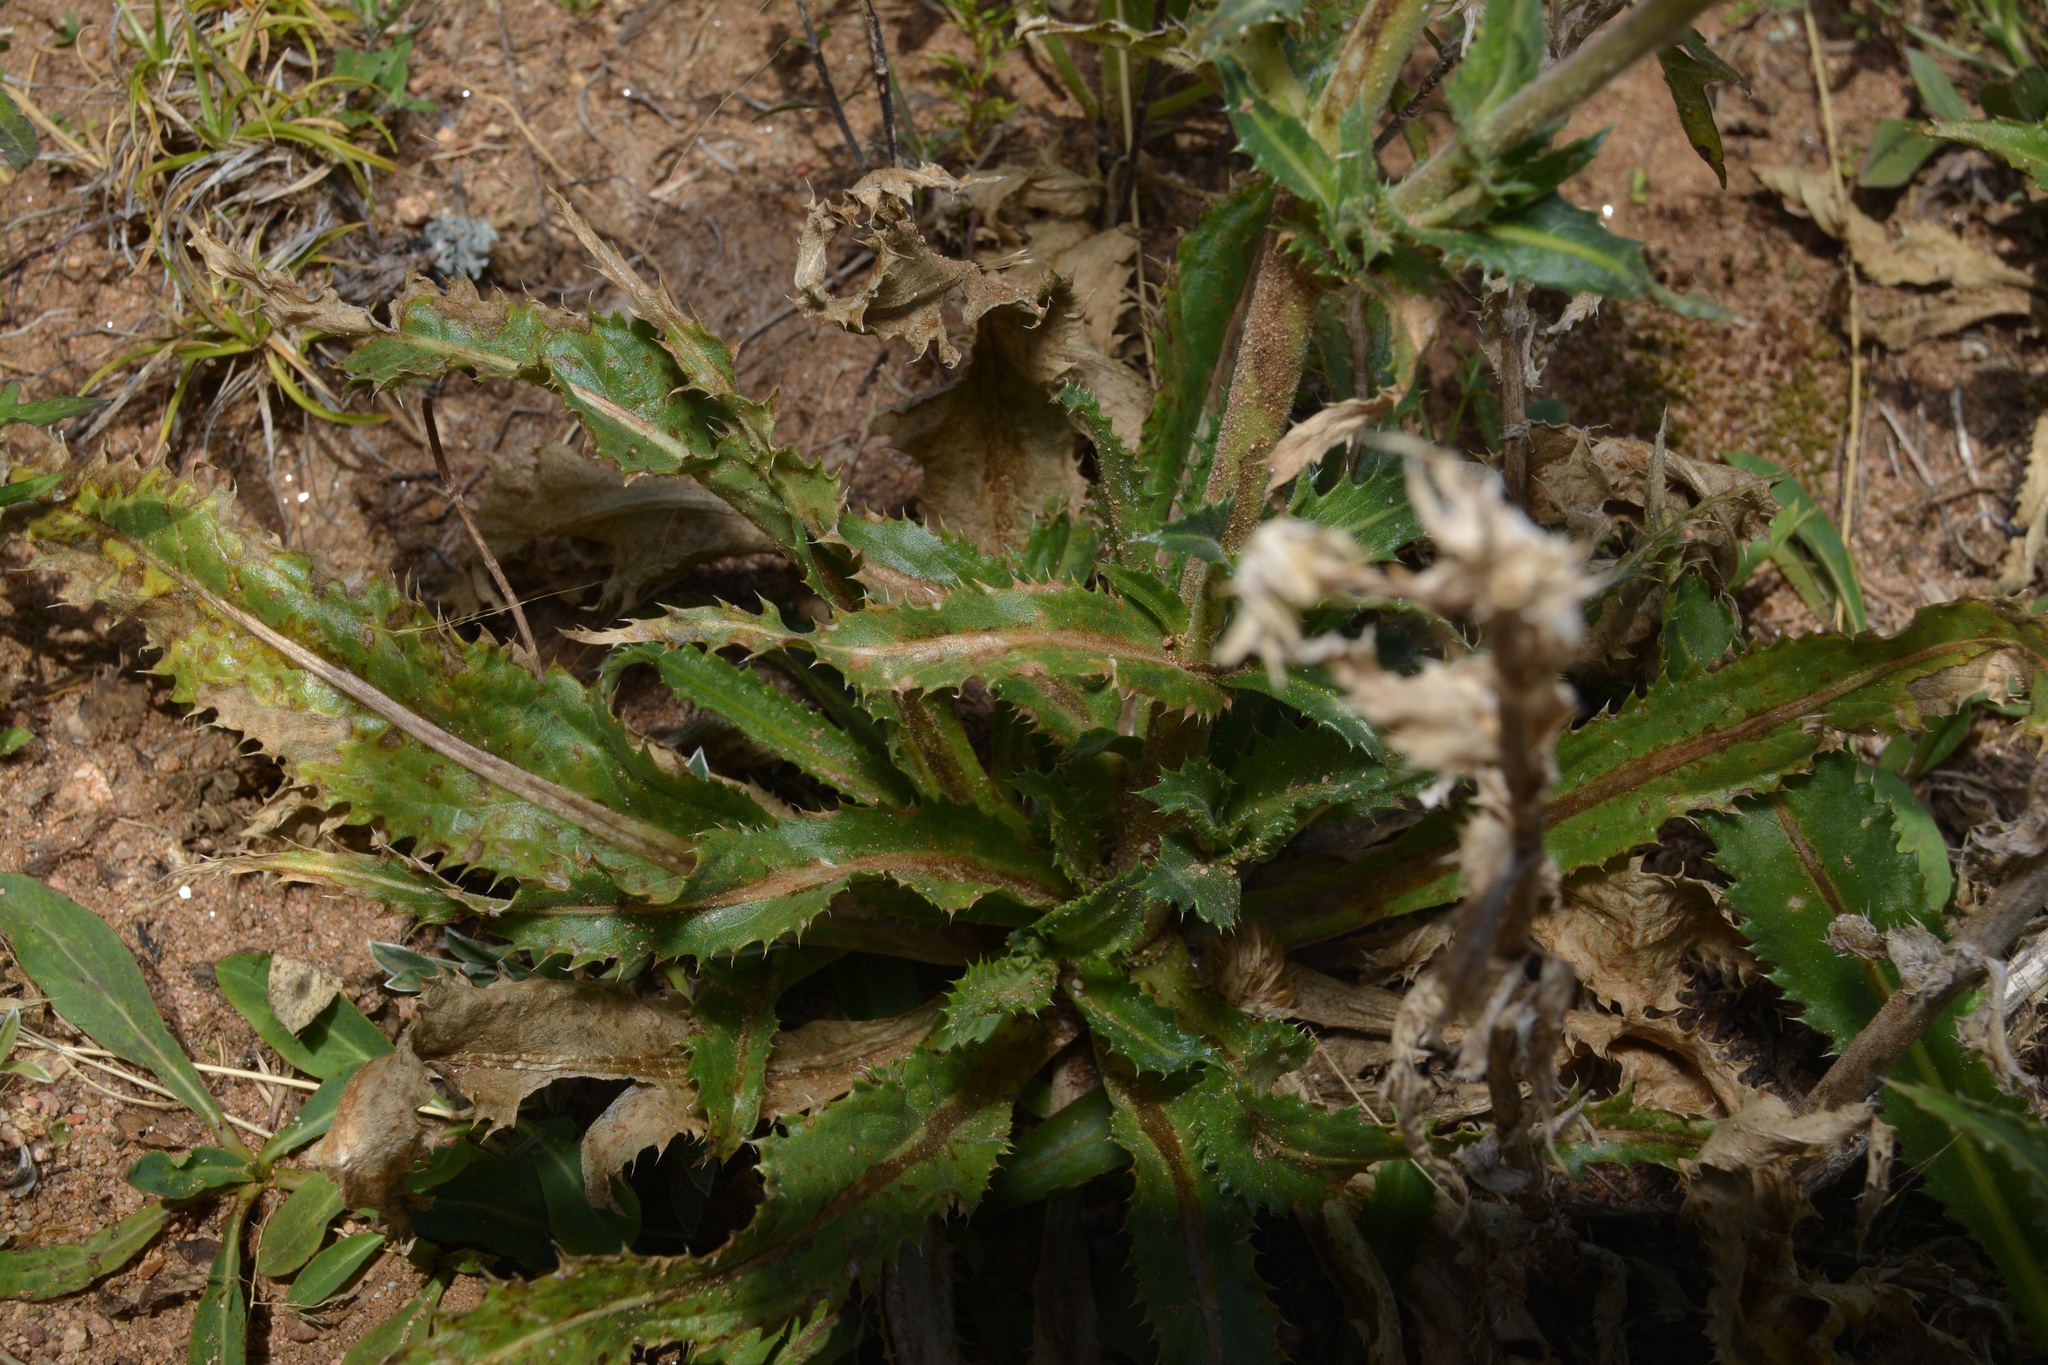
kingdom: Plantae
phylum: Tracheophyta
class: Magnoliopsida
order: Asterales
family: Asteraceae
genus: Perezia
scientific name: Perezia multiflora
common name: Perezia
